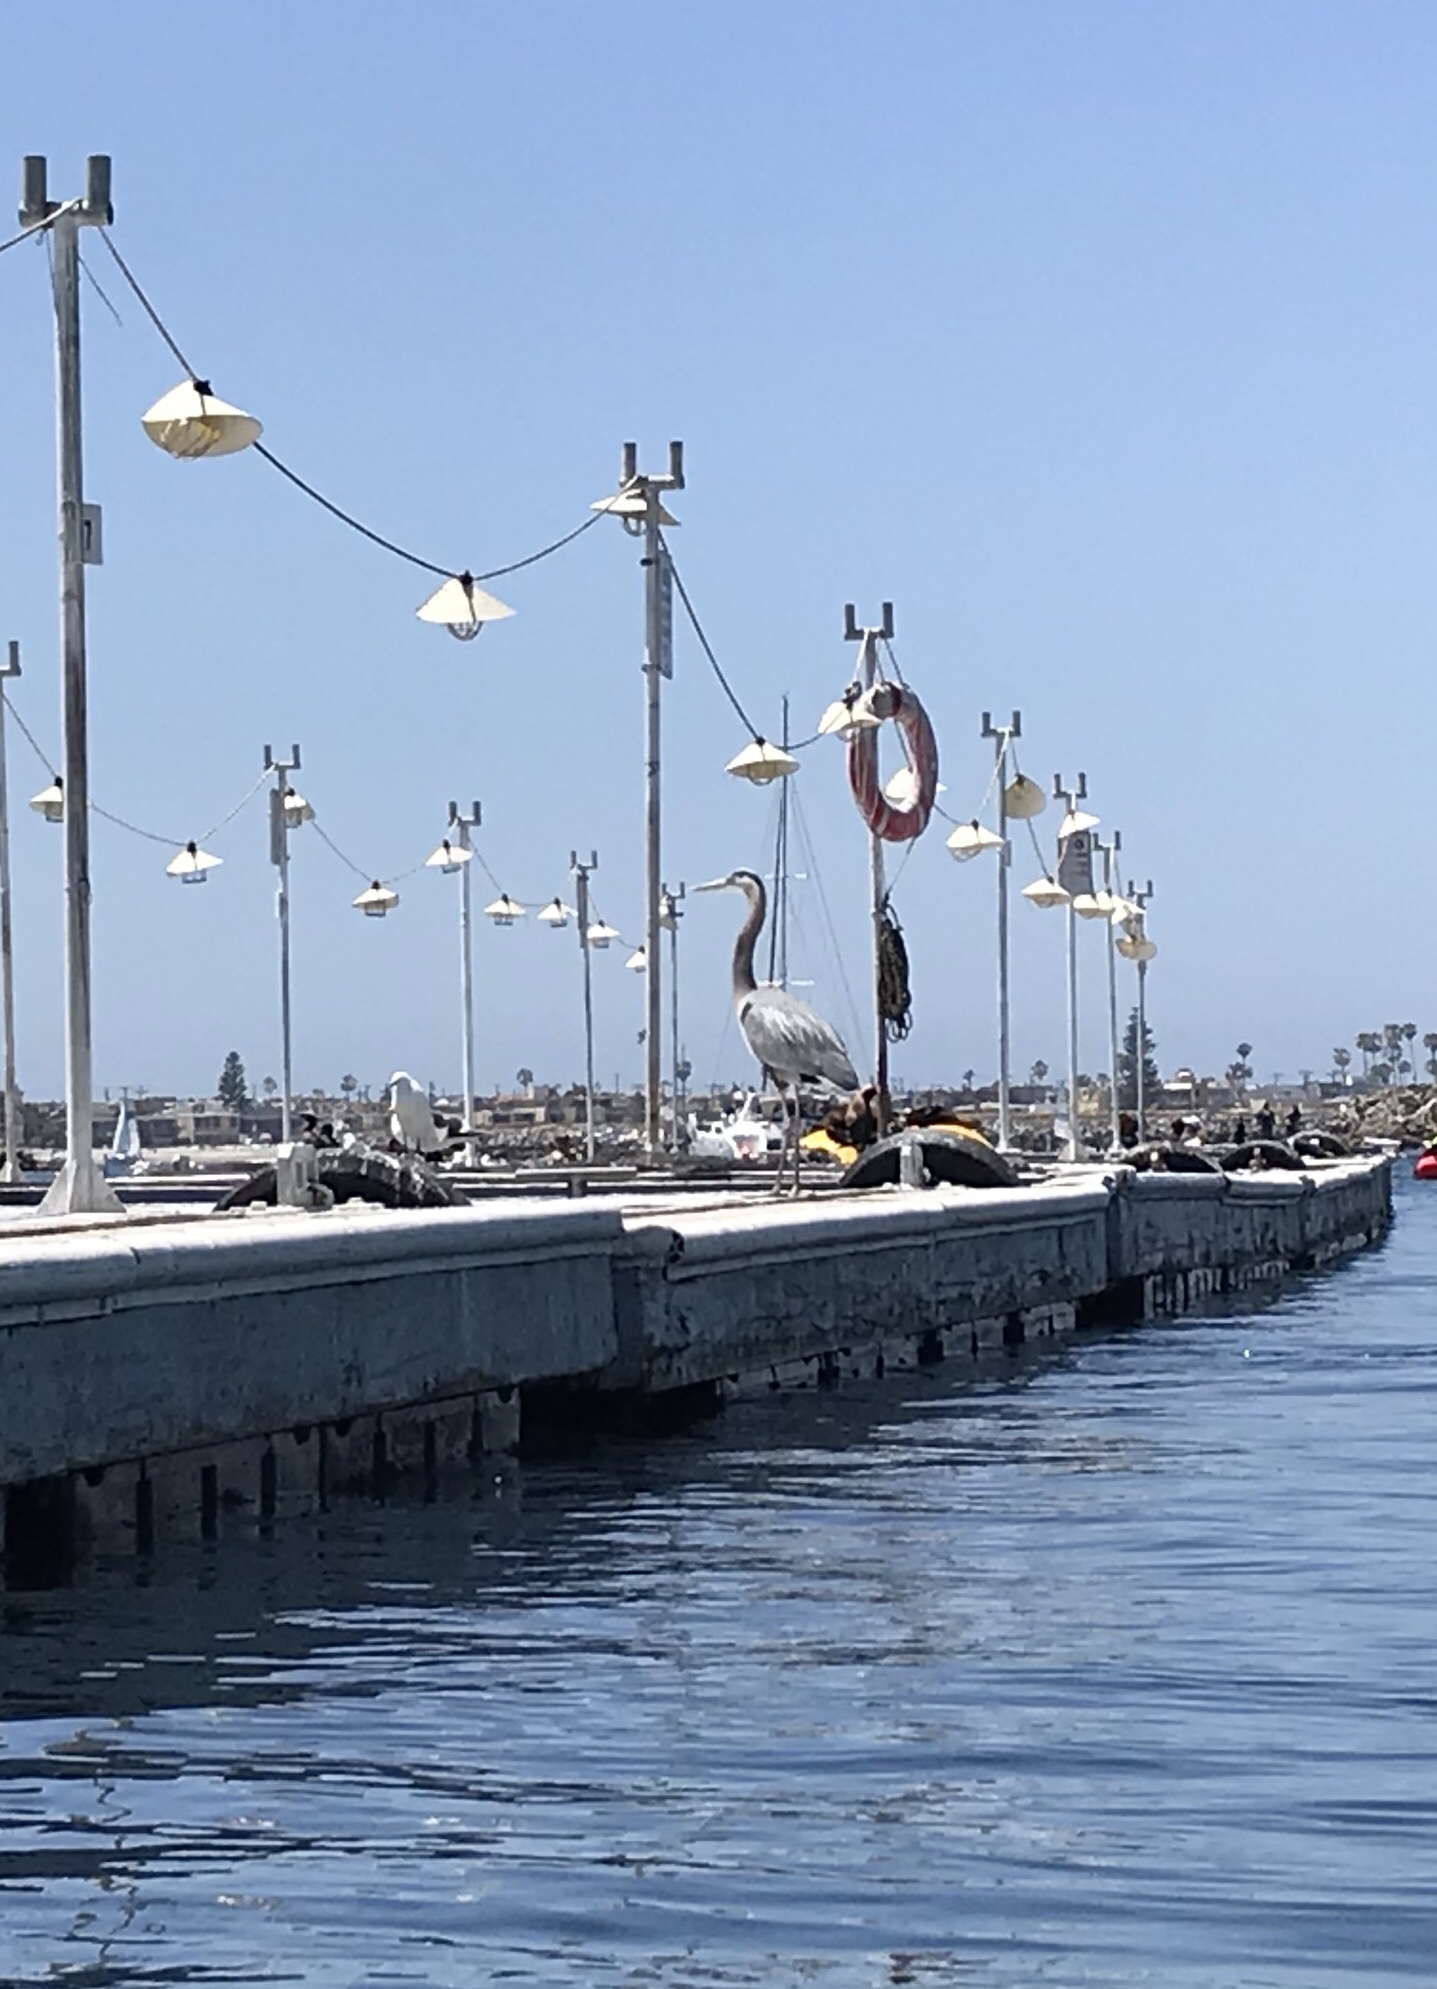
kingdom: Animalia
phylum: Chordata
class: Aves
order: Pelecaniformes
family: Ardeidae
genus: Ardea
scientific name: Ardea herodias
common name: Great blue heron
